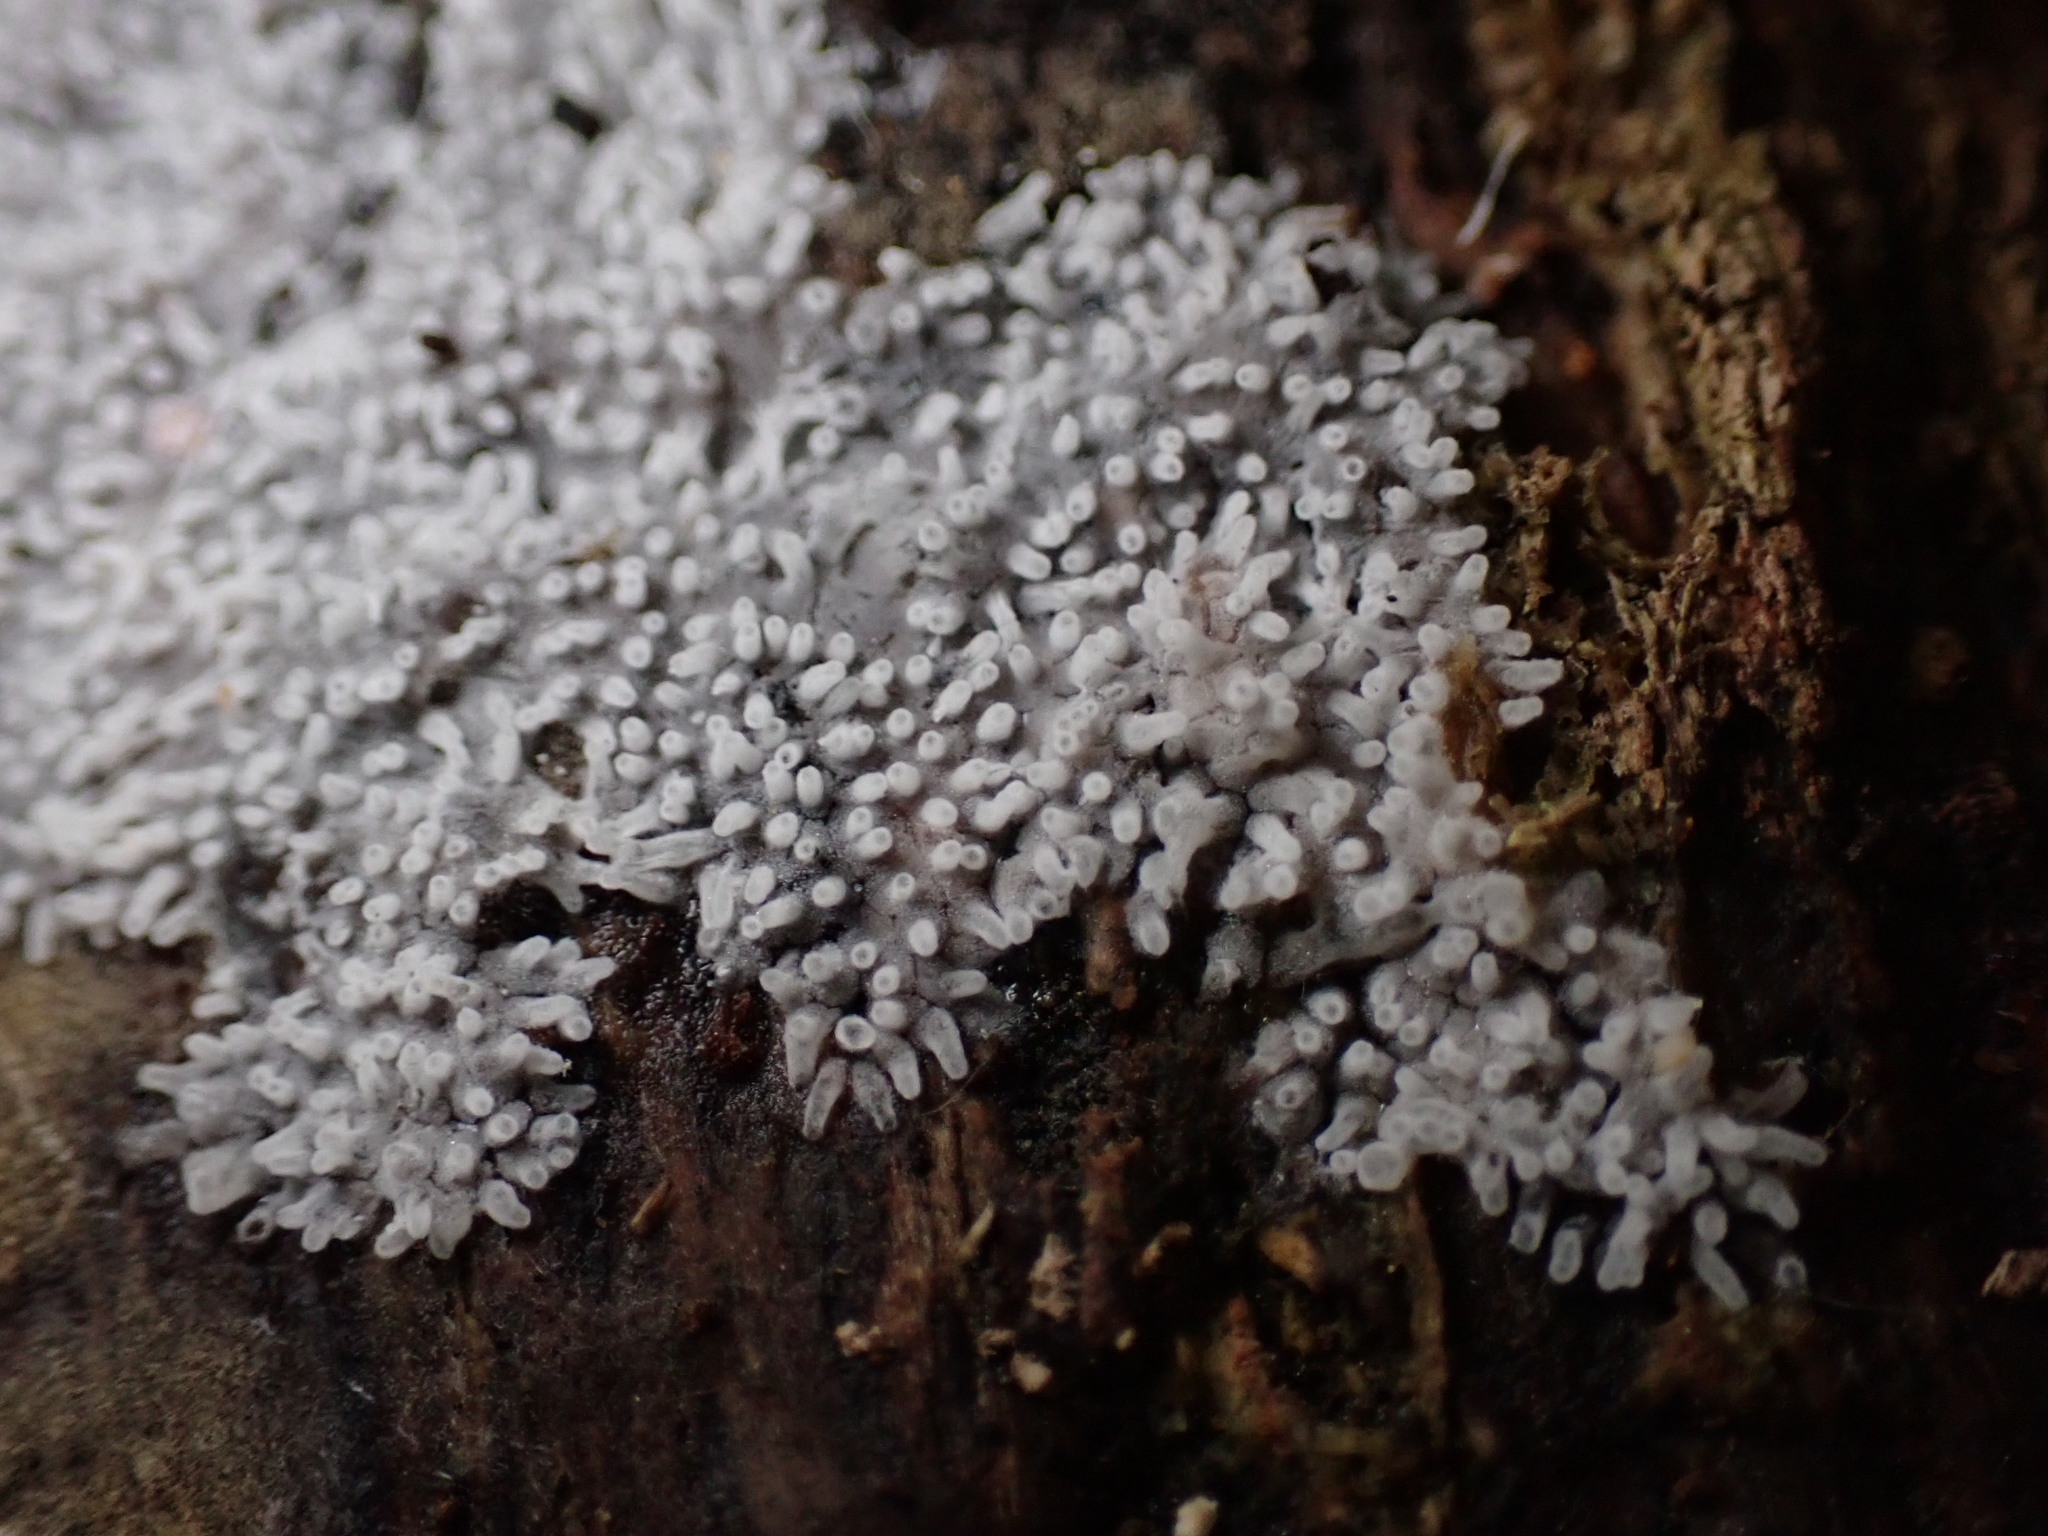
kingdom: Protozoa
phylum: Mycetozoa
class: Protosteliomycetes
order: Ceratiomyxales
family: Ceratiomyxaceae
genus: Ceratiomyxa
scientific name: Ceratiomyxa fruticulosa
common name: Honeycomb coral slime mold
